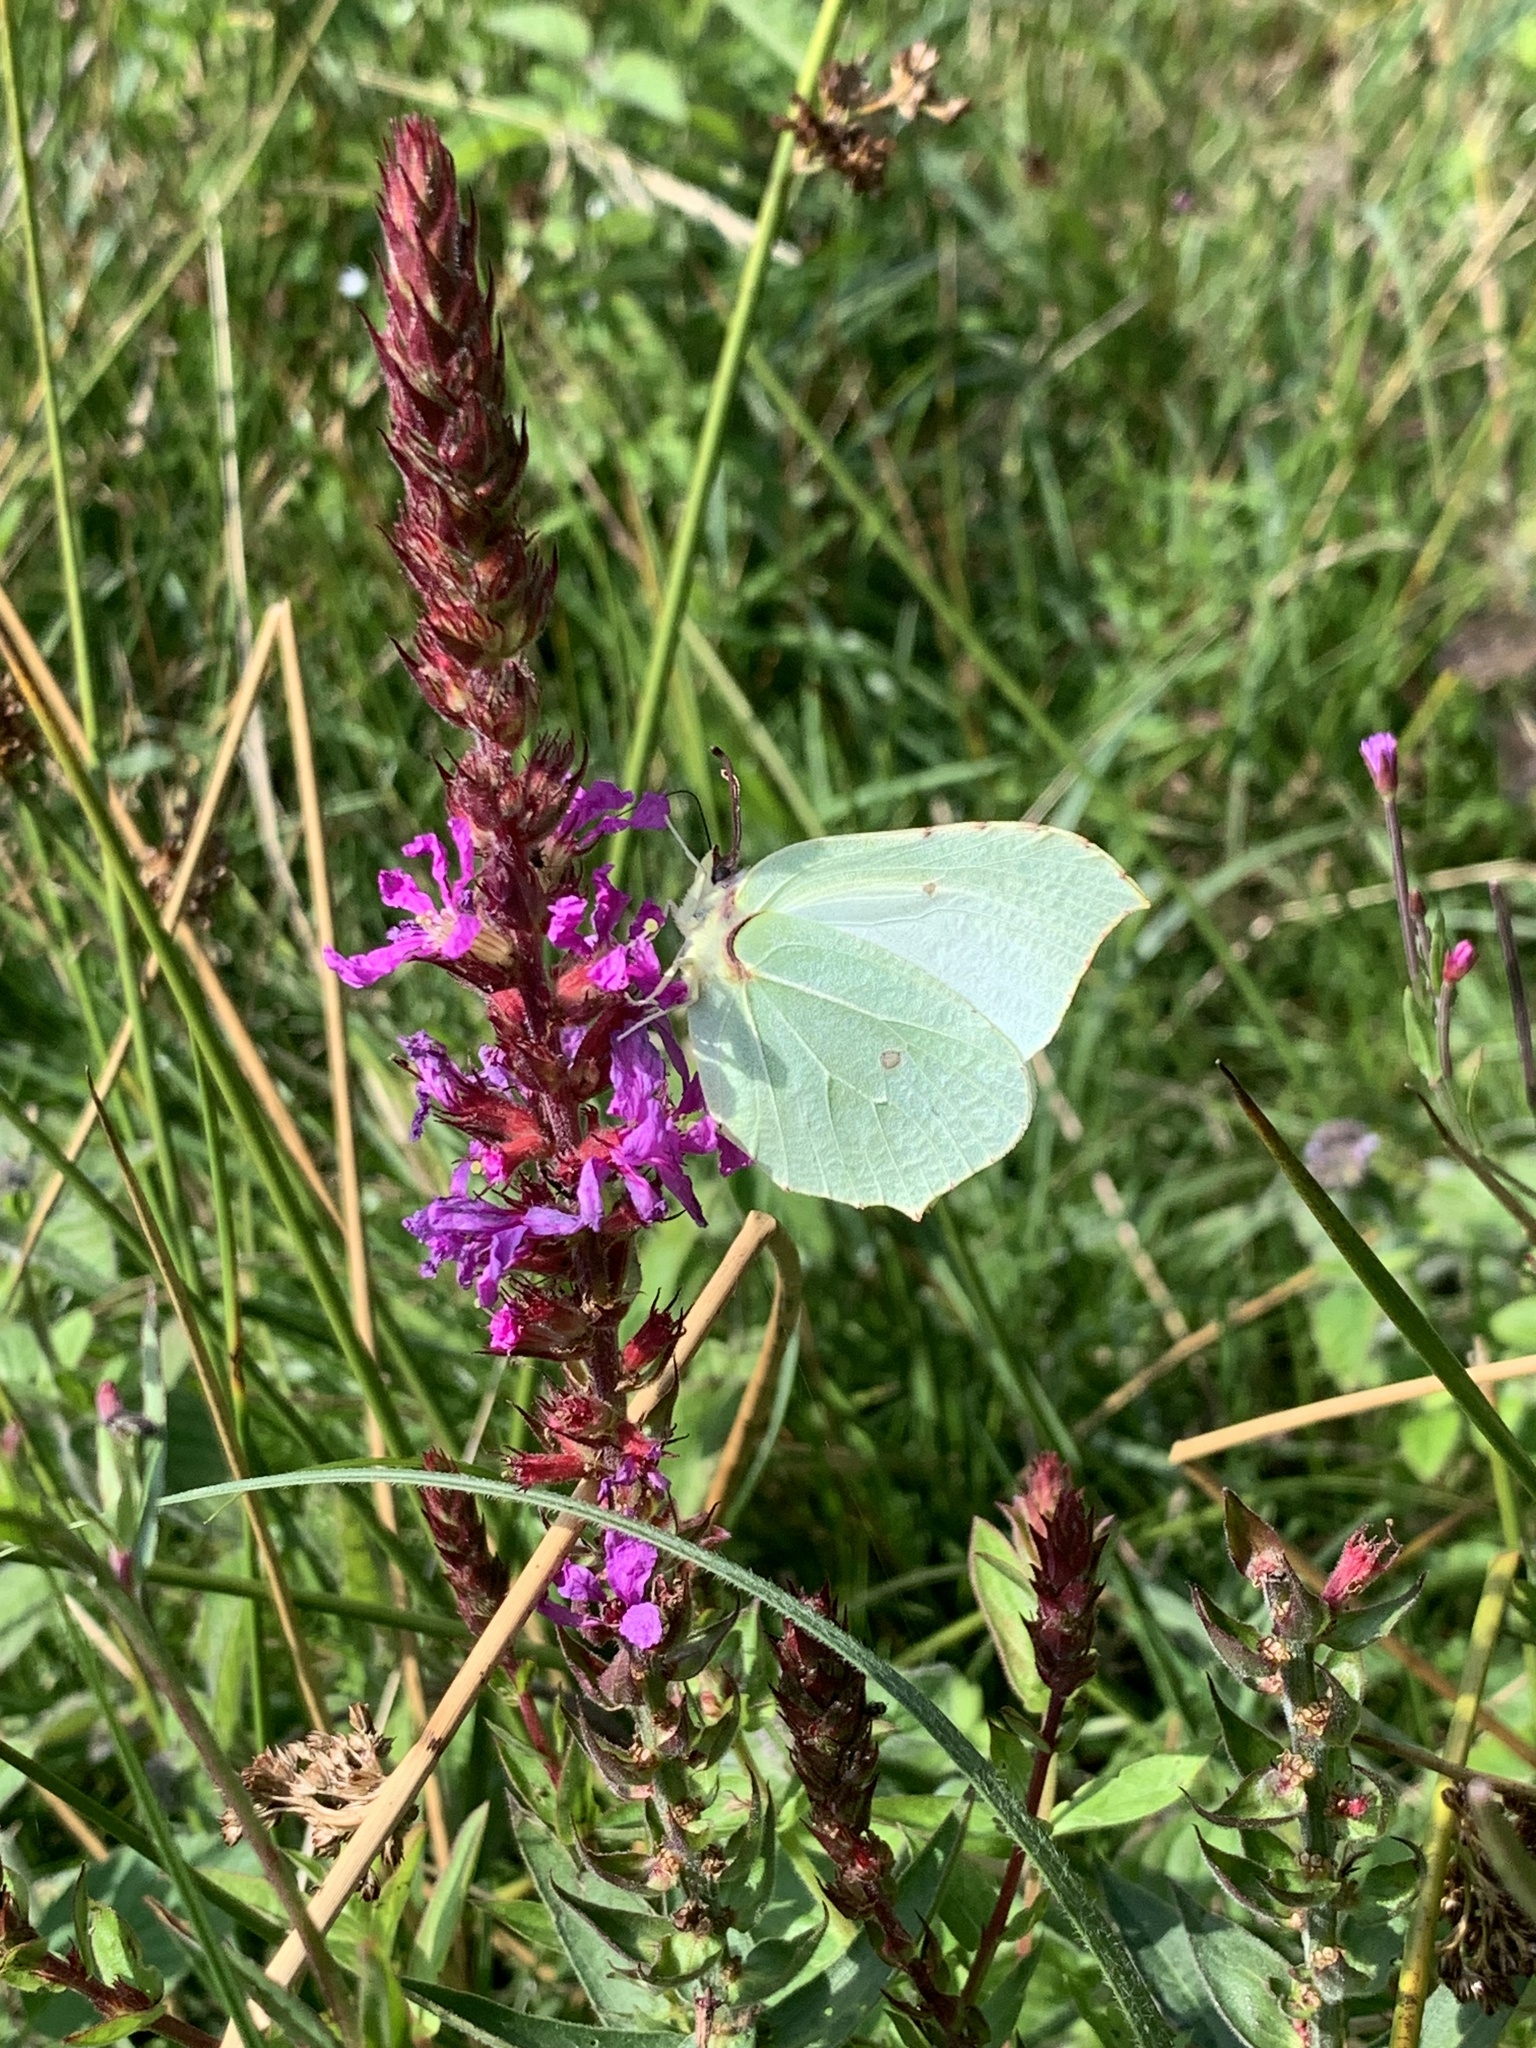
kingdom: Animalia
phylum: Arthropoda
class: Insecta
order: Lepidoptera
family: Pieridae
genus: Gonepteryx
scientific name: Gonepteryx rhamni
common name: Brimstone
